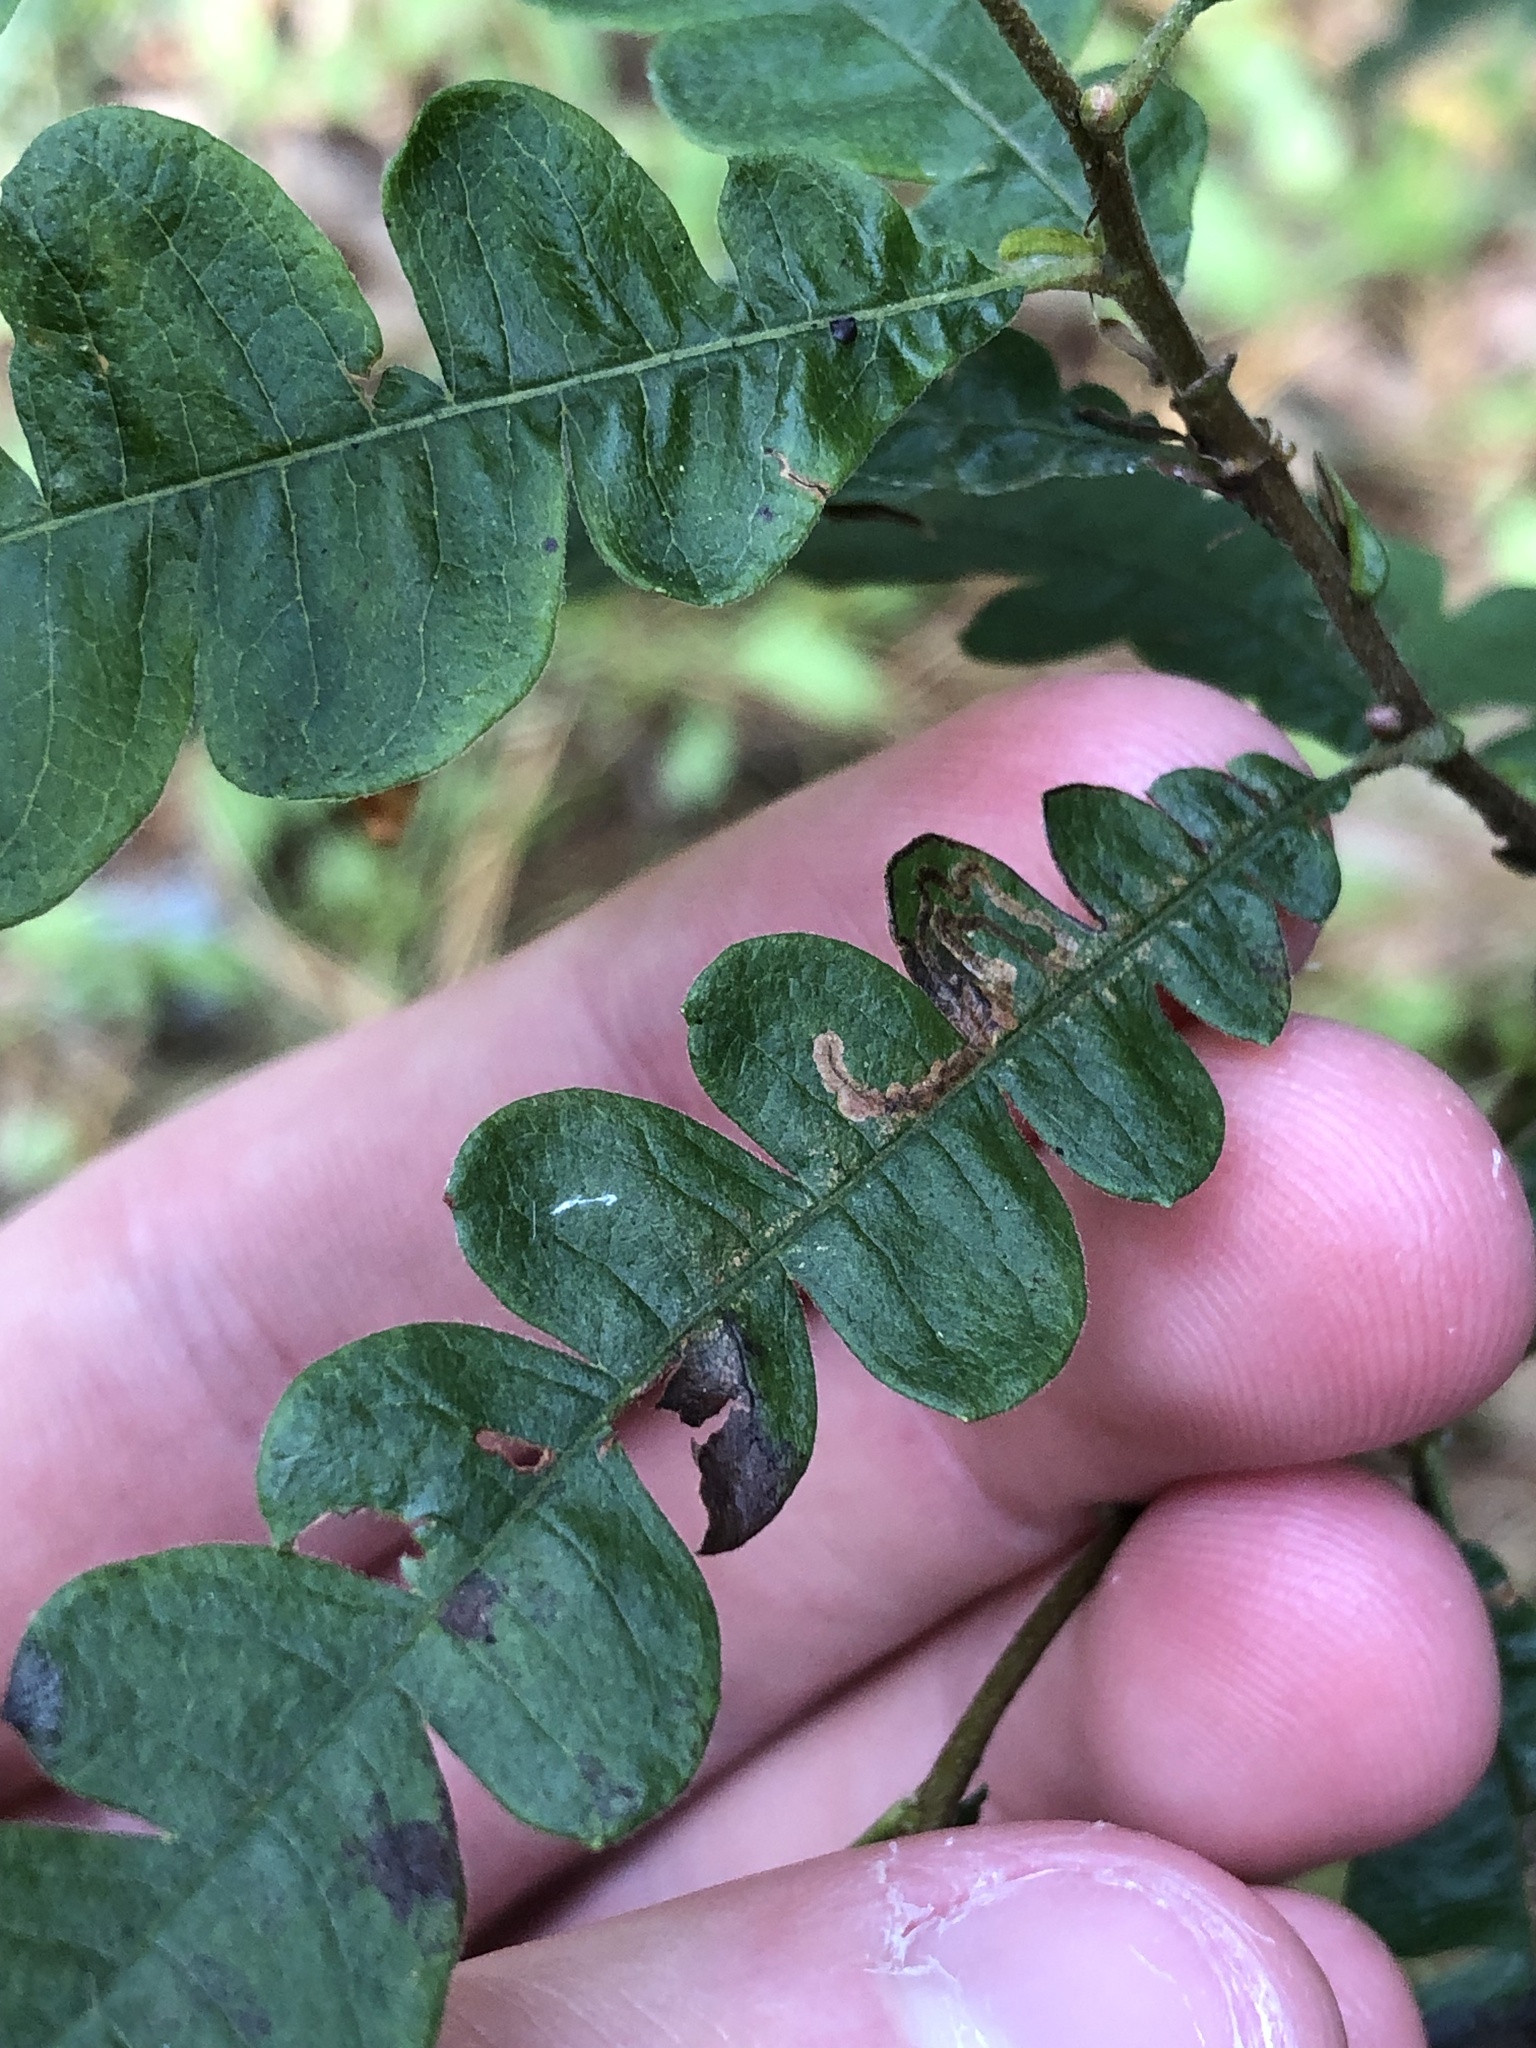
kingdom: Animalia
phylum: Arthropoda
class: Insecta
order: Lepidoptera
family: Nepticulidae
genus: Stigmella
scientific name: Stigmella corylifoliella
